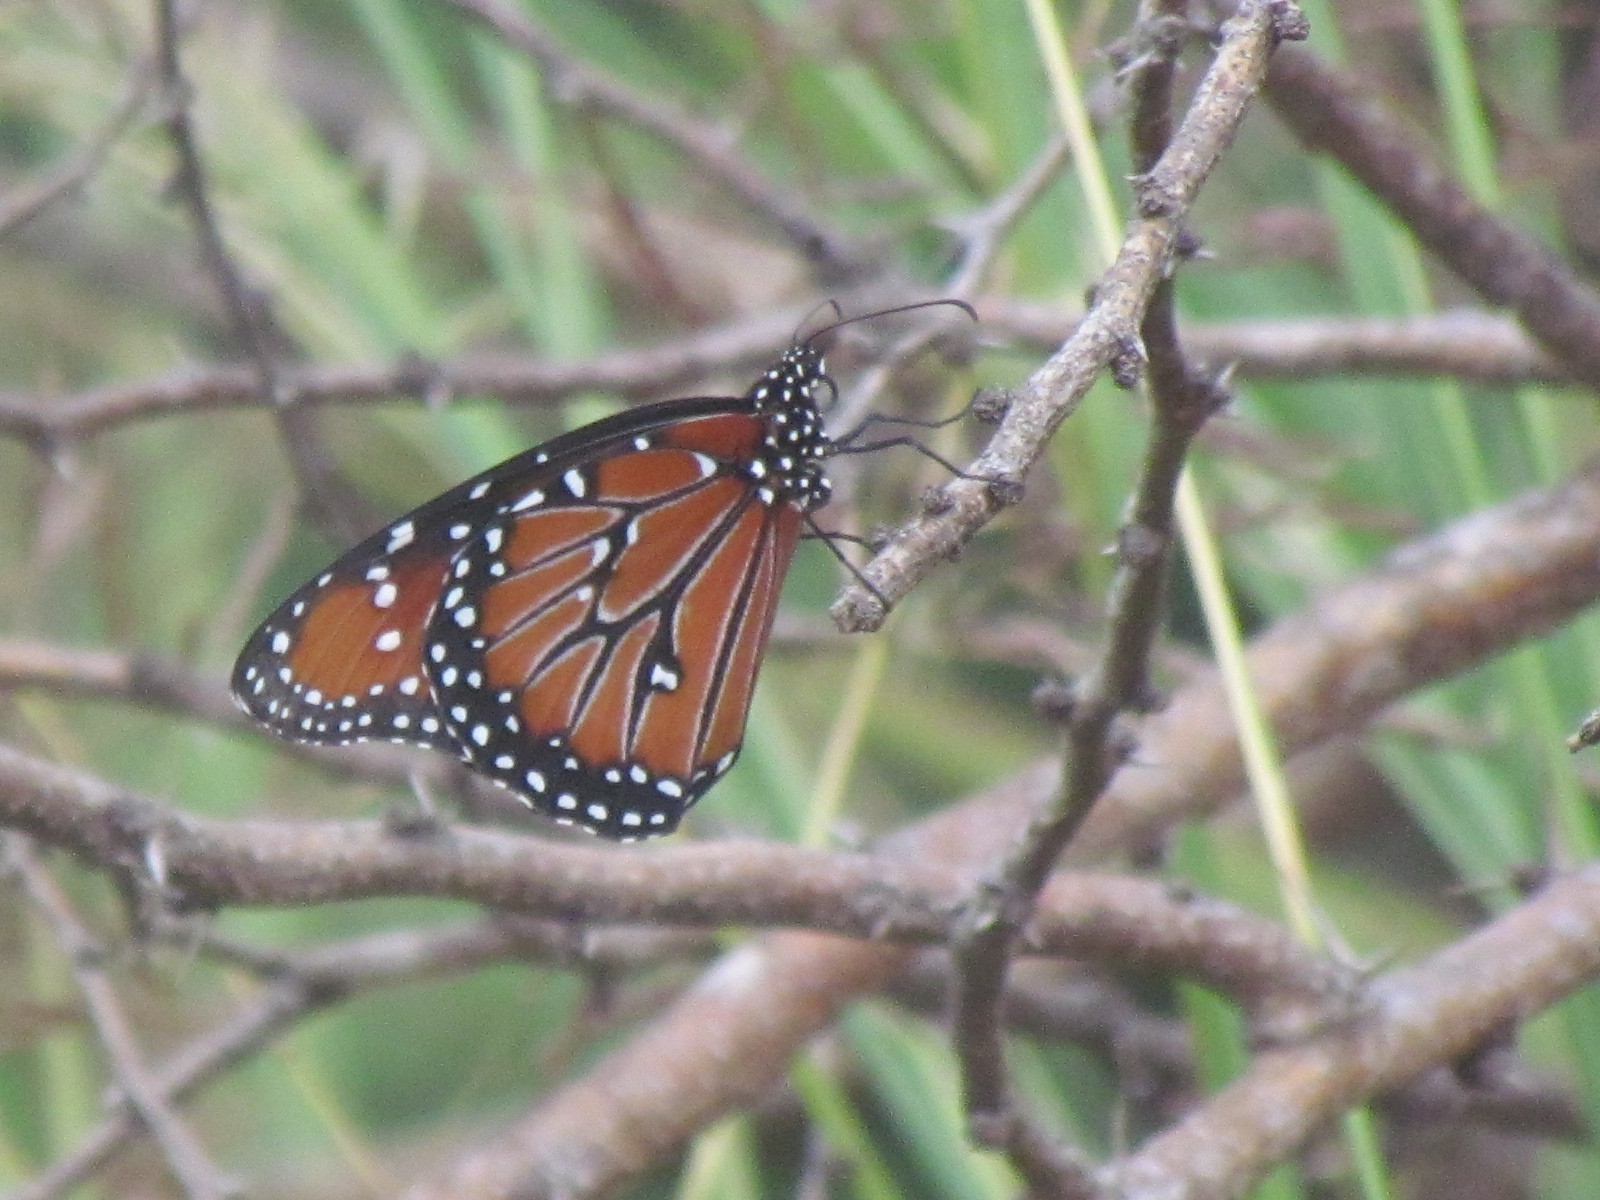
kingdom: Animalia
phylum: Arthropoda
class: Insecta
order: Lepidoptera
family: Nymphalidae
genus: Danaus
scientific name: Danaus gilippus
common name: Queen
